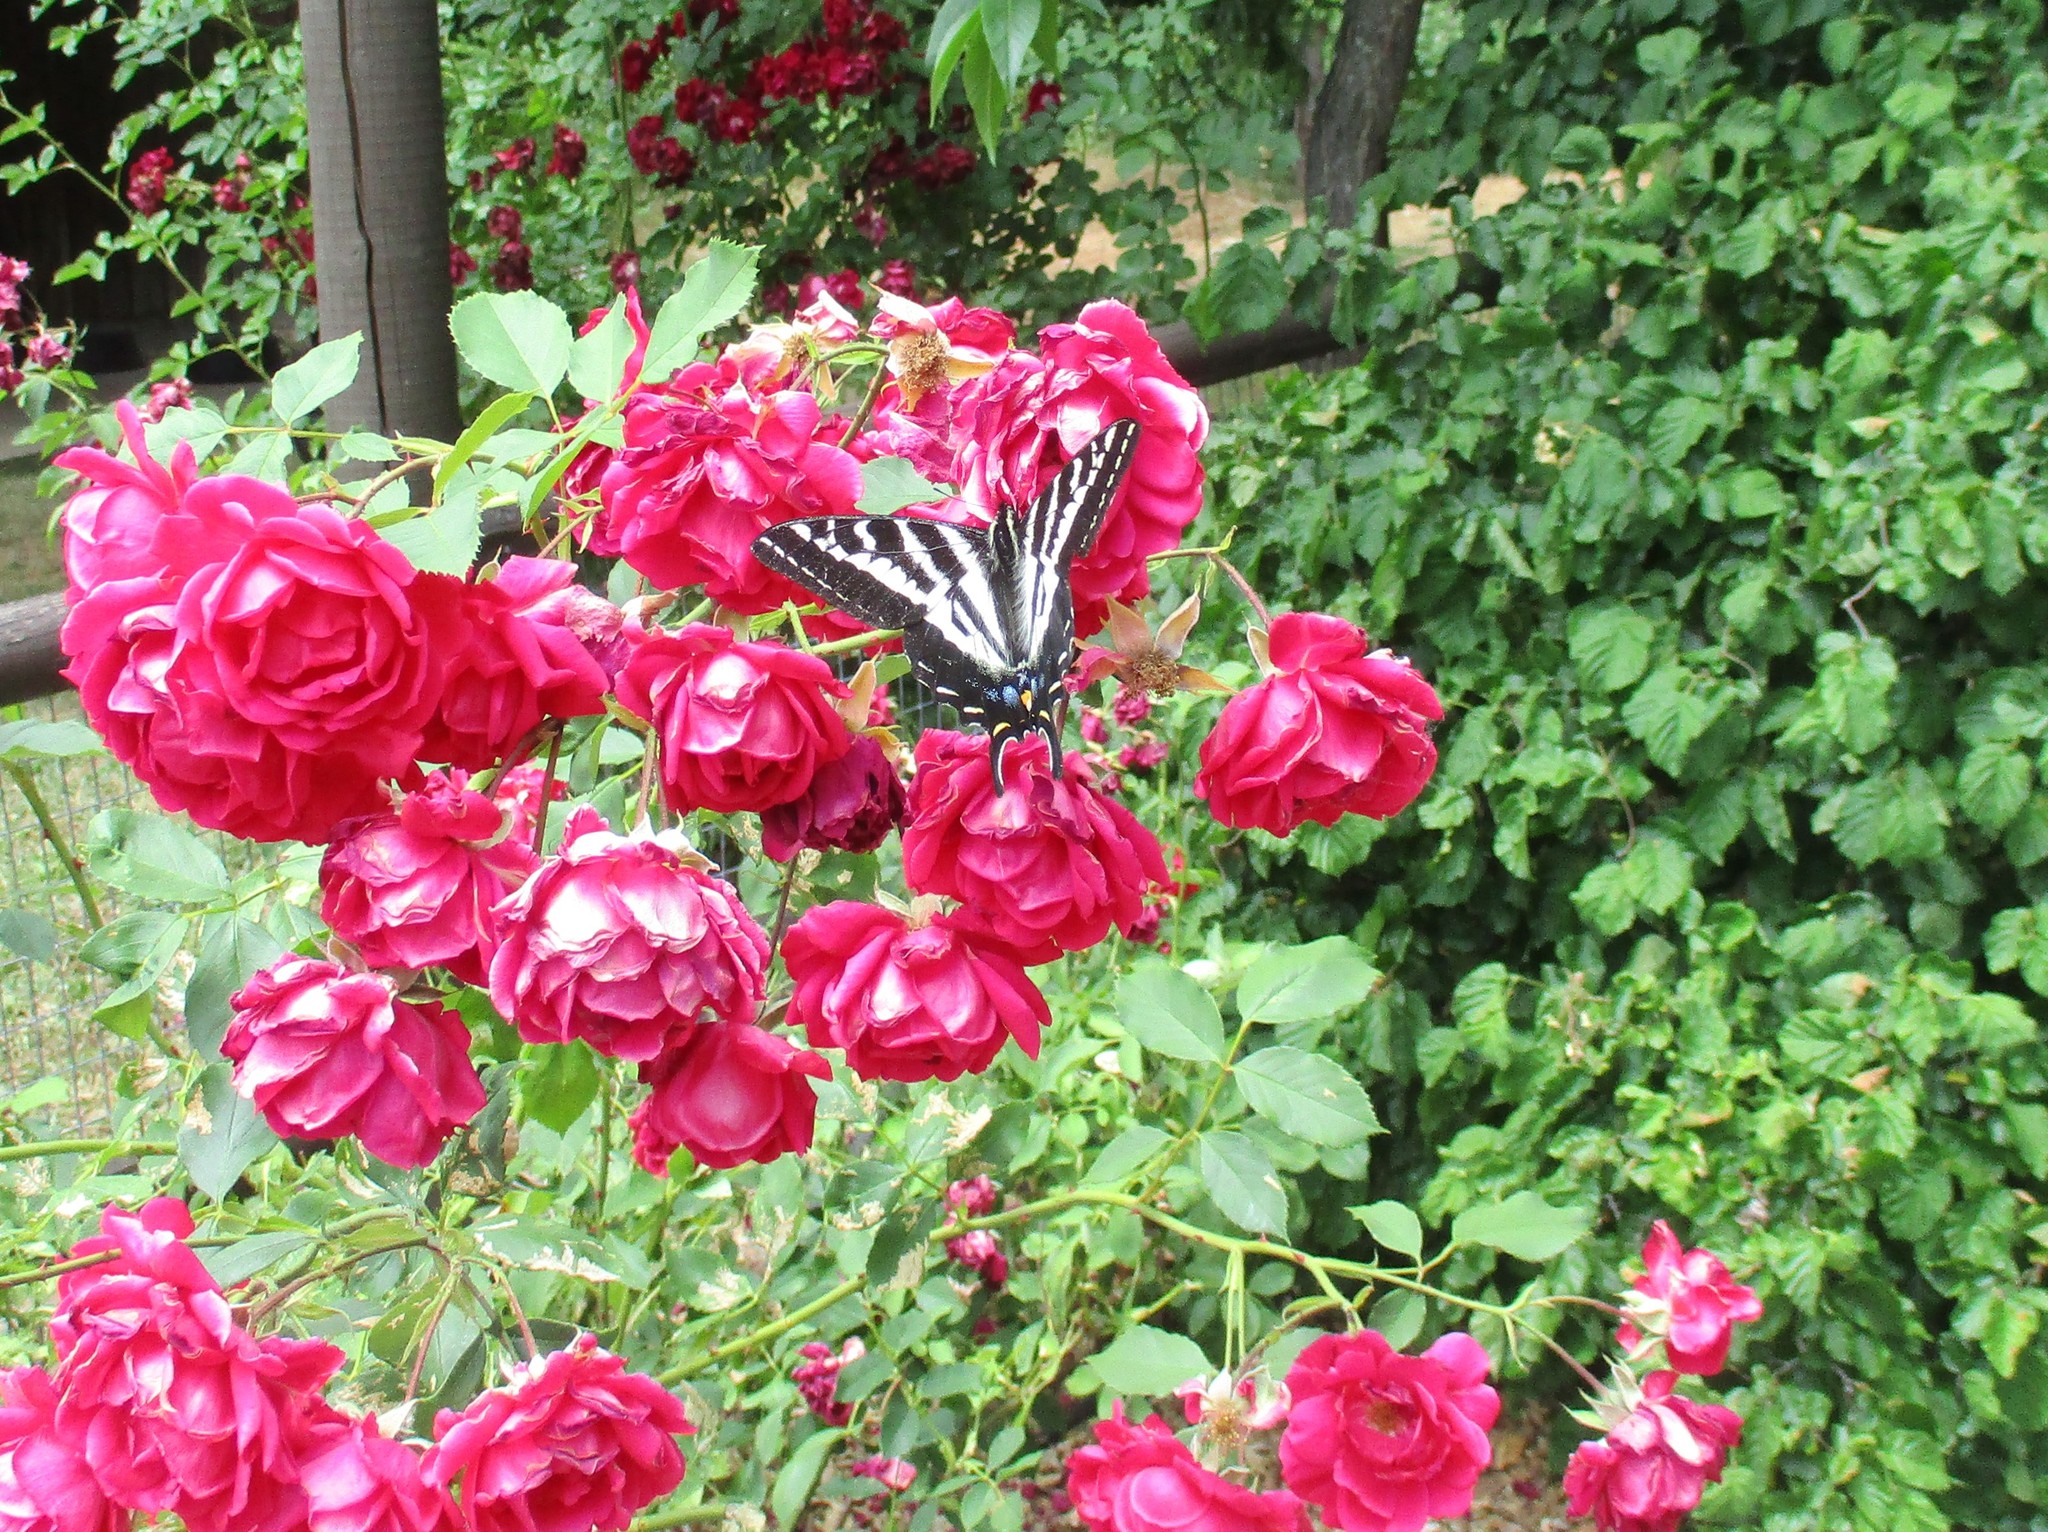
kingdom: Animalia
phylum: Arthropoda
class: Insecta
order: Lepidoptera
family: Papilionidae
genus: Papilio
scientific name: Papilio eurymedon
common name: Pale tiger swallowtail
